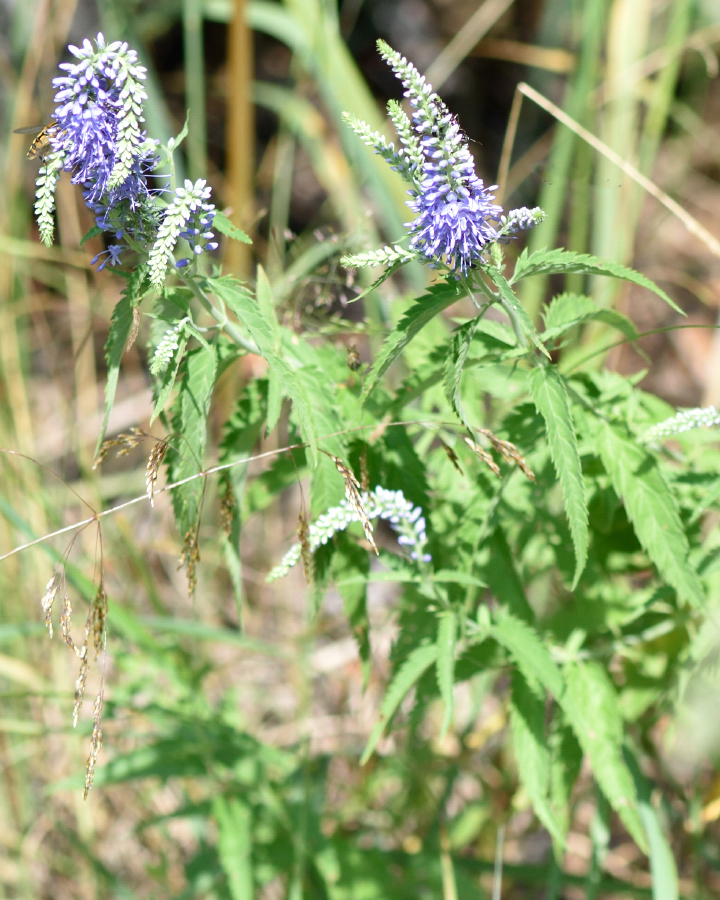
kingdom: Plantae
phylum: Tracheophyta
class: Magnoliopsida
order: Lamiales
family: Plantaginaceae
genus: Veronica
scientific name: Veronica longifolia
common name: Garden speedwell
